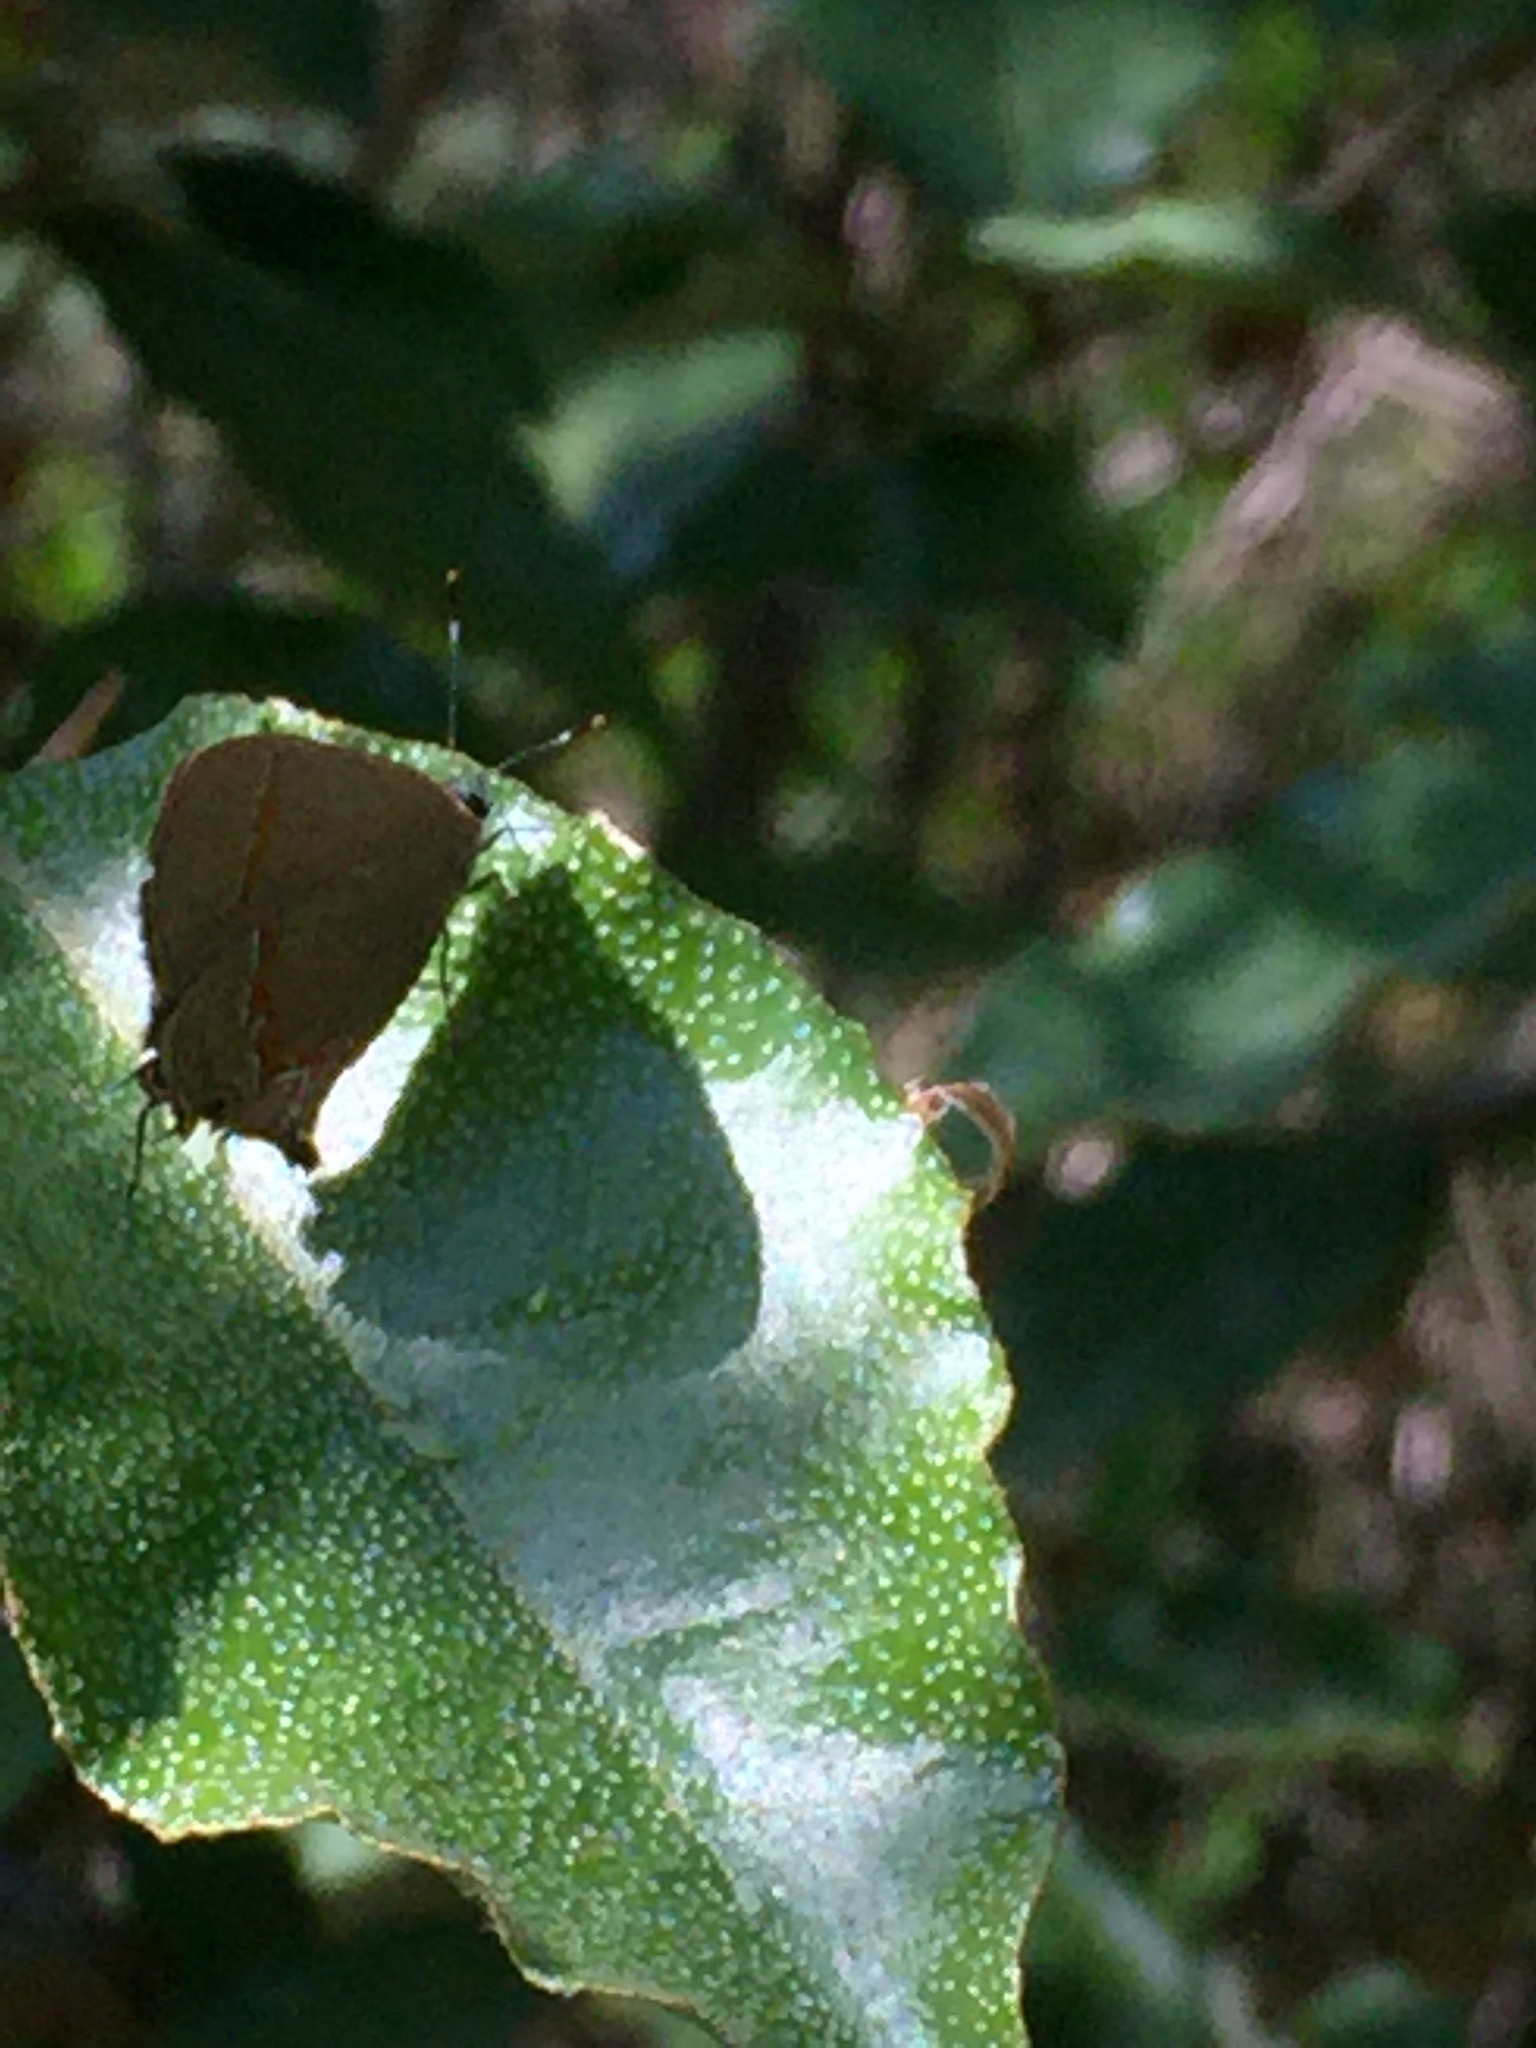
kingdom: Animalia
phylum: Arthropoda
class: Insecta
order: Lepidoptera
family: Lycaenidae
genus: Calycopis
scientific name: Calycopis cecrops
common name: Red-banded hairstreak
